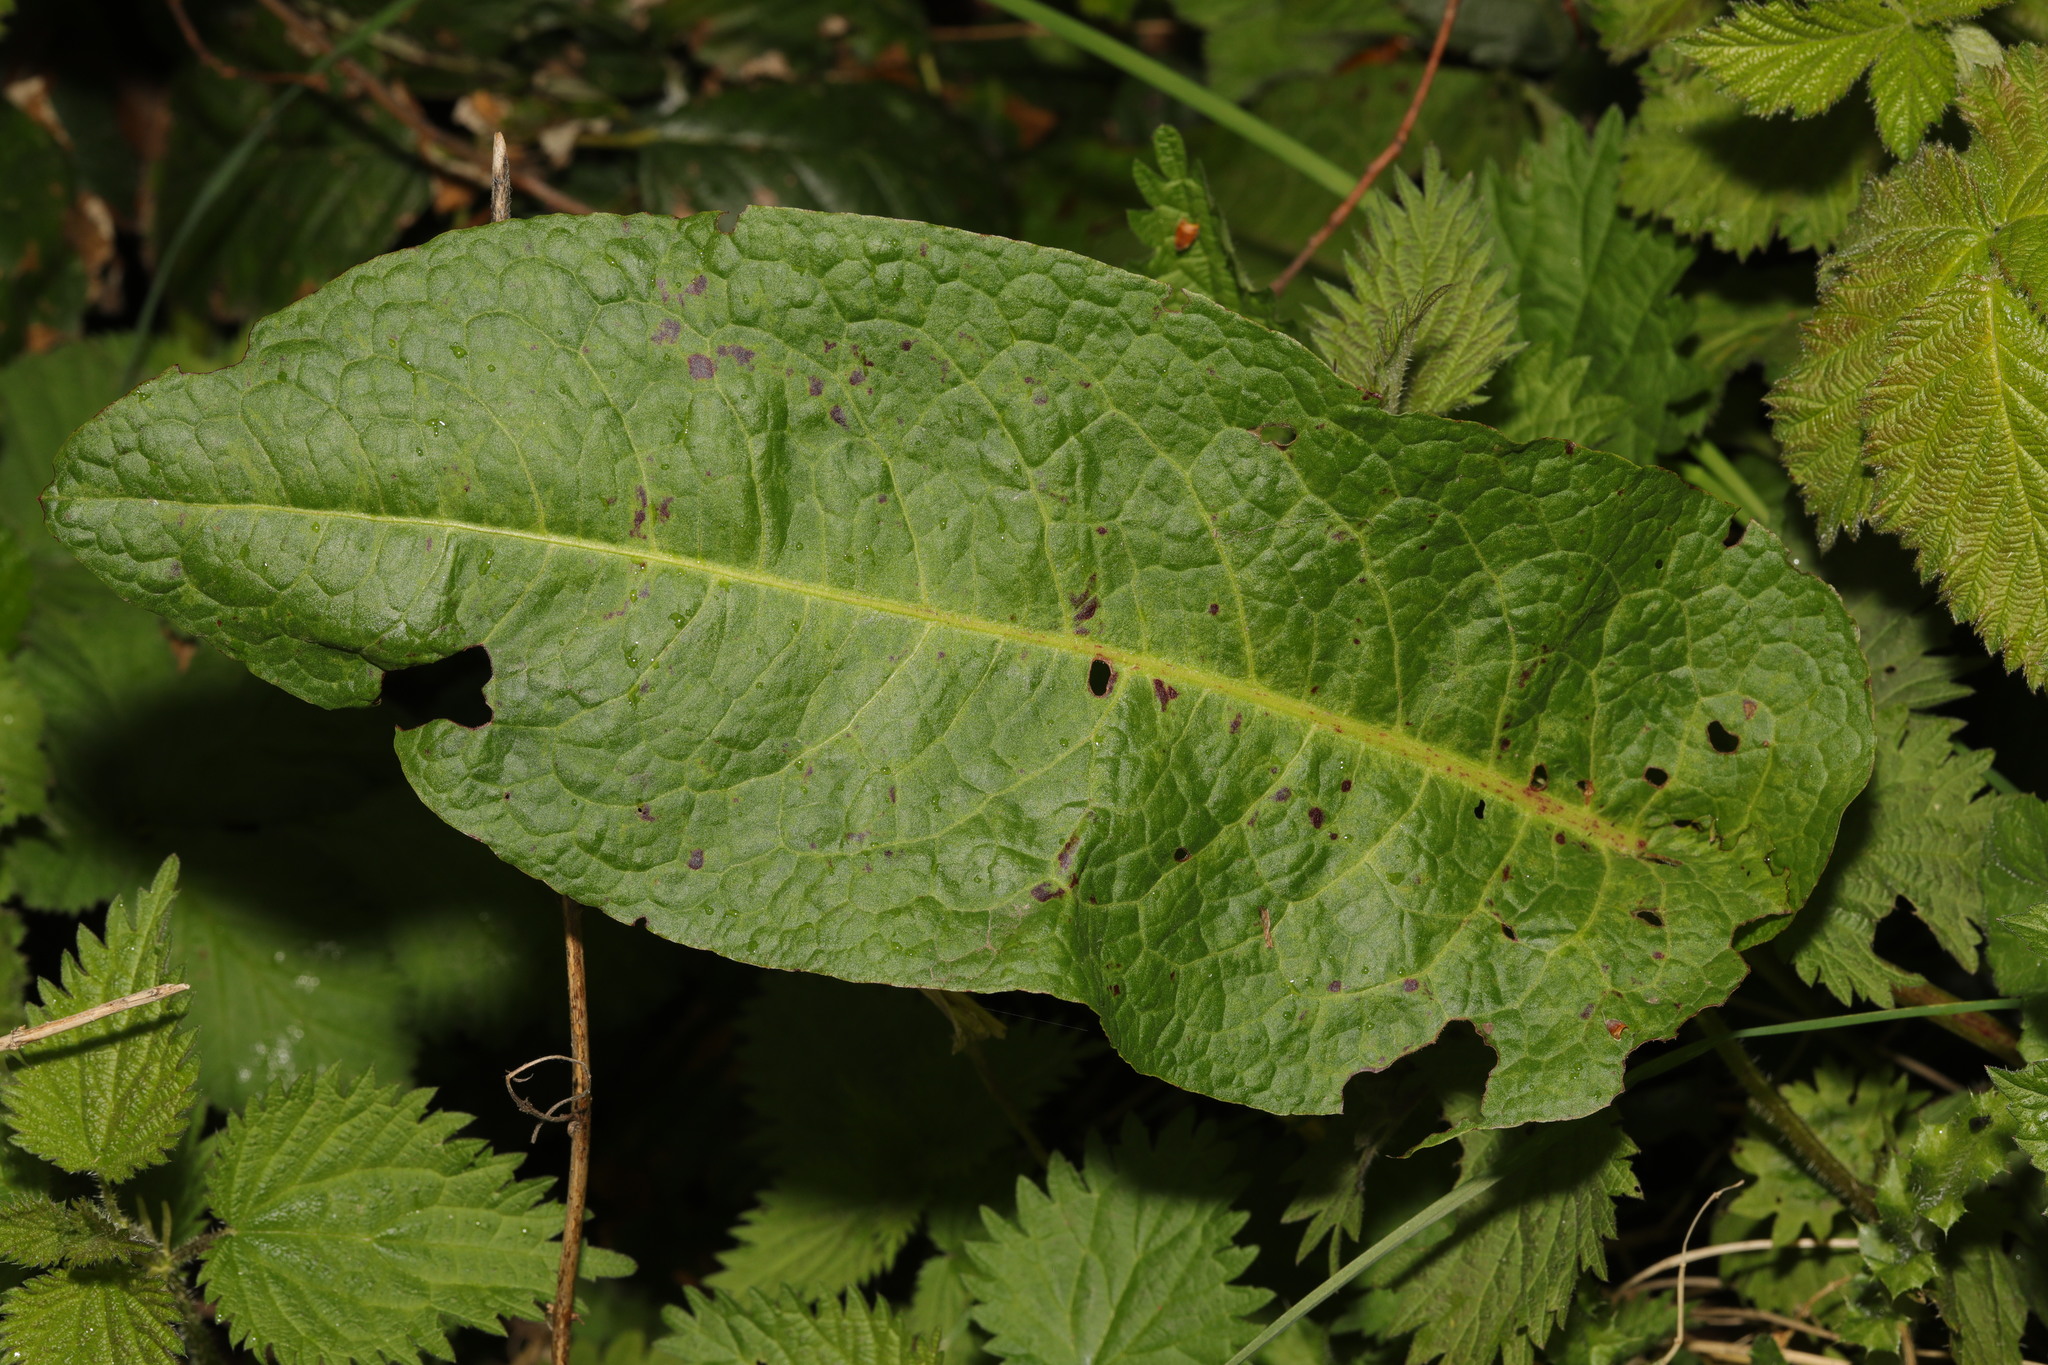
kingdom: Plantae
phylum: Tracheophyta
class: Magnoliopsida
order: Caryophyllales
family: Polygonaceae
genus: Rumex
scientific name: Rumex obtusifolius
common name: Bitter dock
